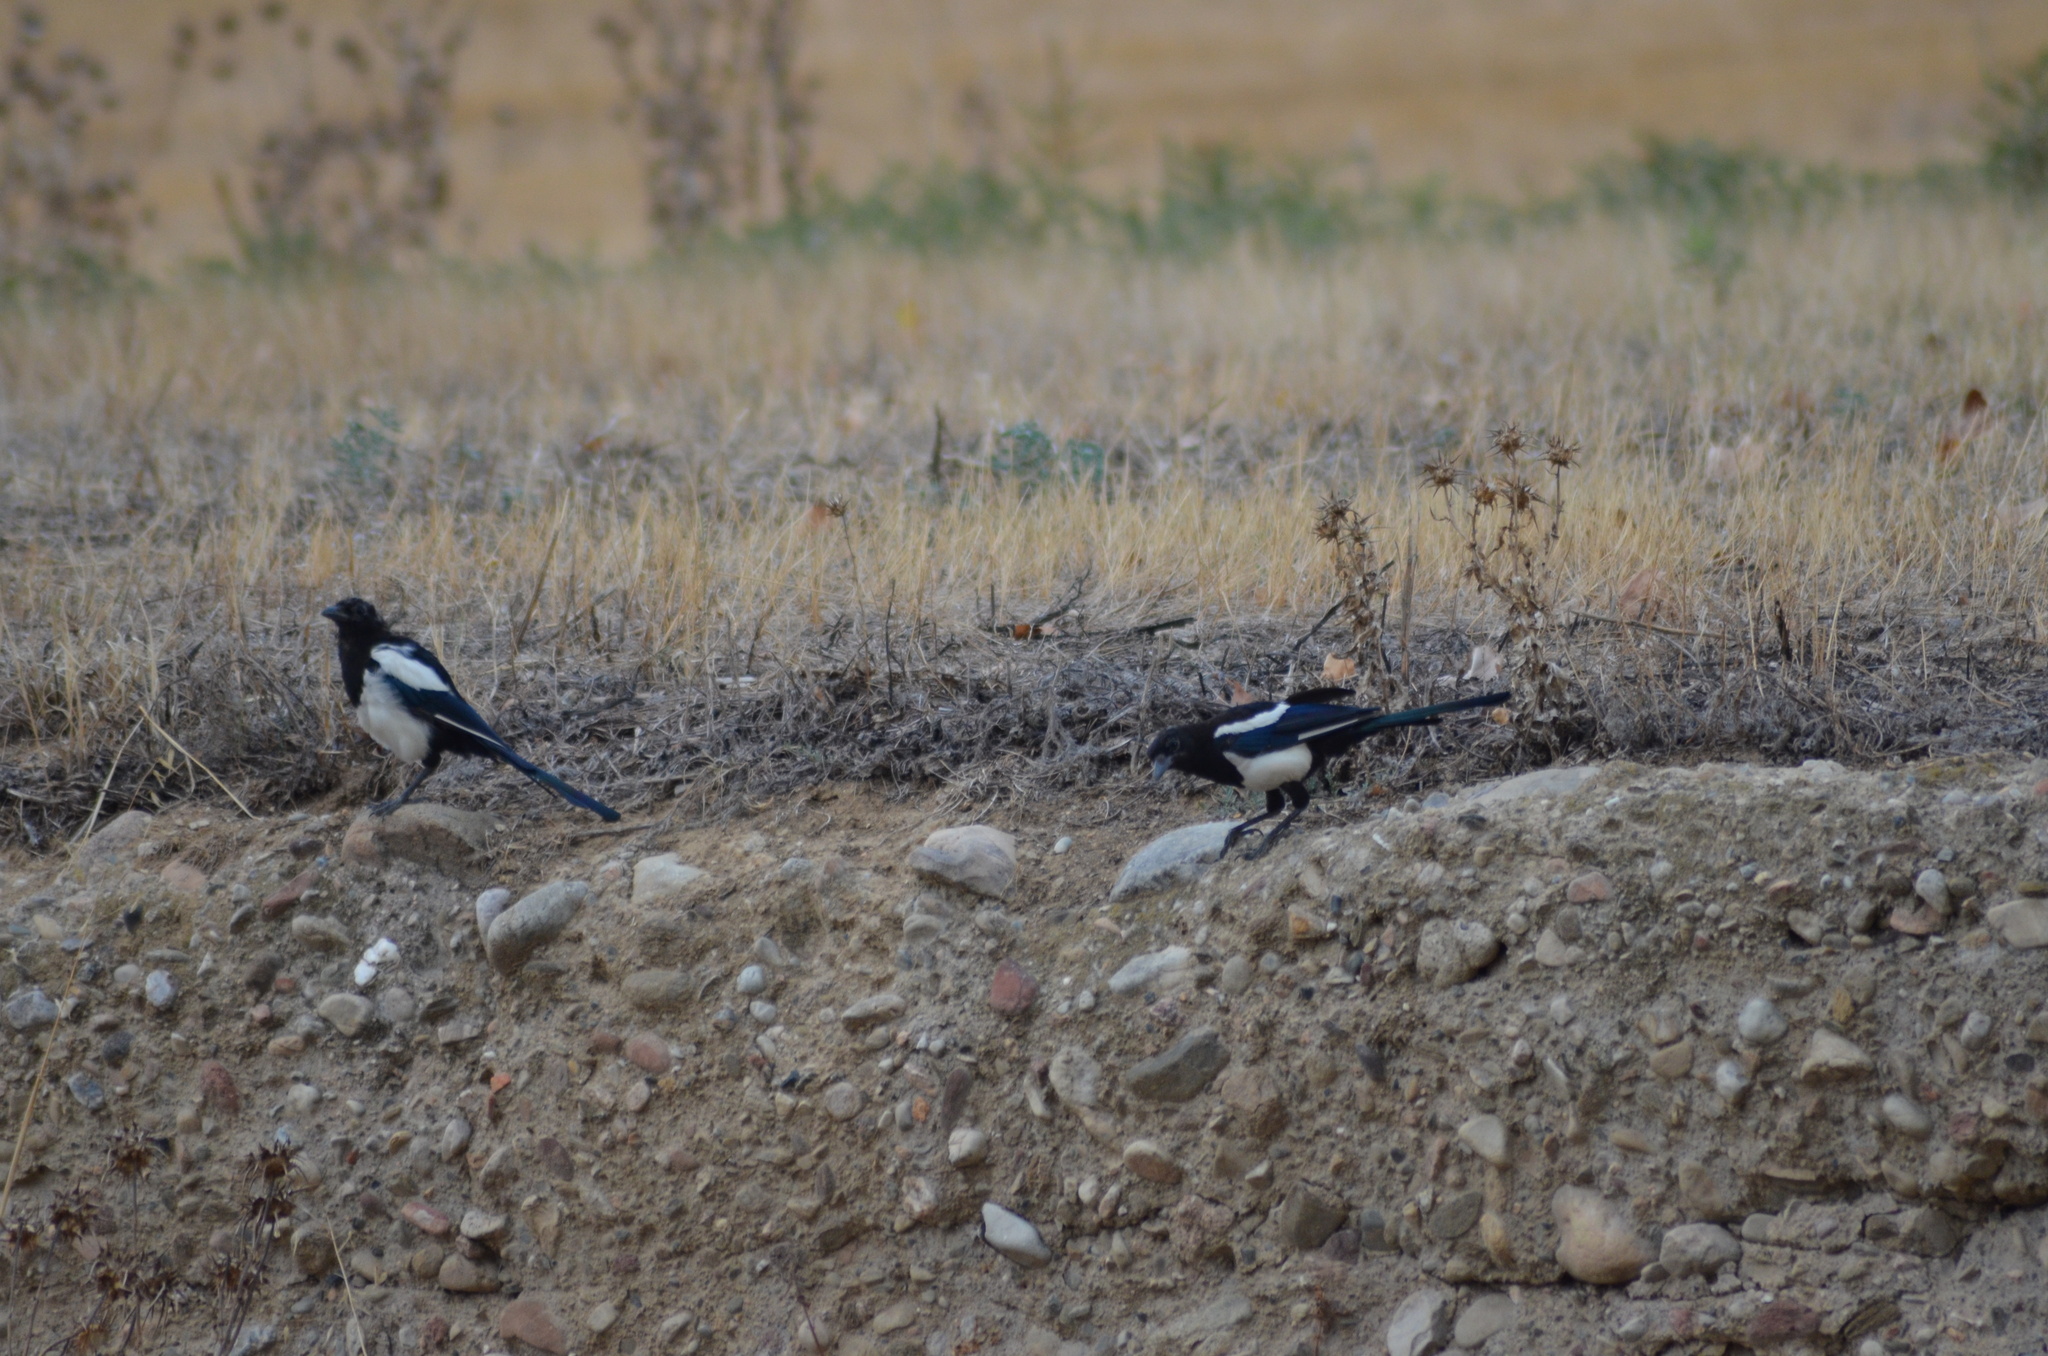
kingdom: Animalia
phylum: Chordata
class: Aves
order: Passeriformes
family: Corvidae
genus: Pica
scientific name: Pica pica
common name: Eurasian magpie
